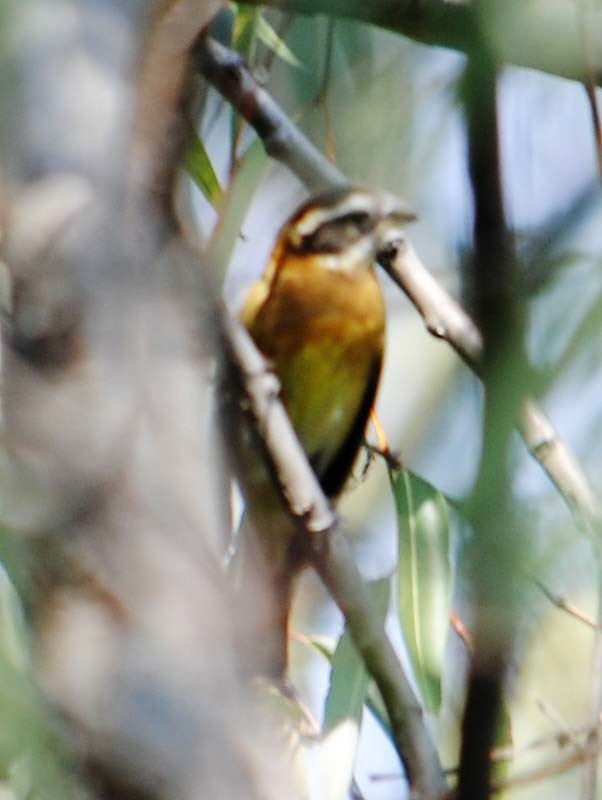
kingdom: Animalia
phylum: Chordata
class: Aves
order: Passeriformes
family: Cardinalidae
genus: Pheucticus
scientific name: Pheucticus melanocephalus
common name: Black-headed grosbeak
